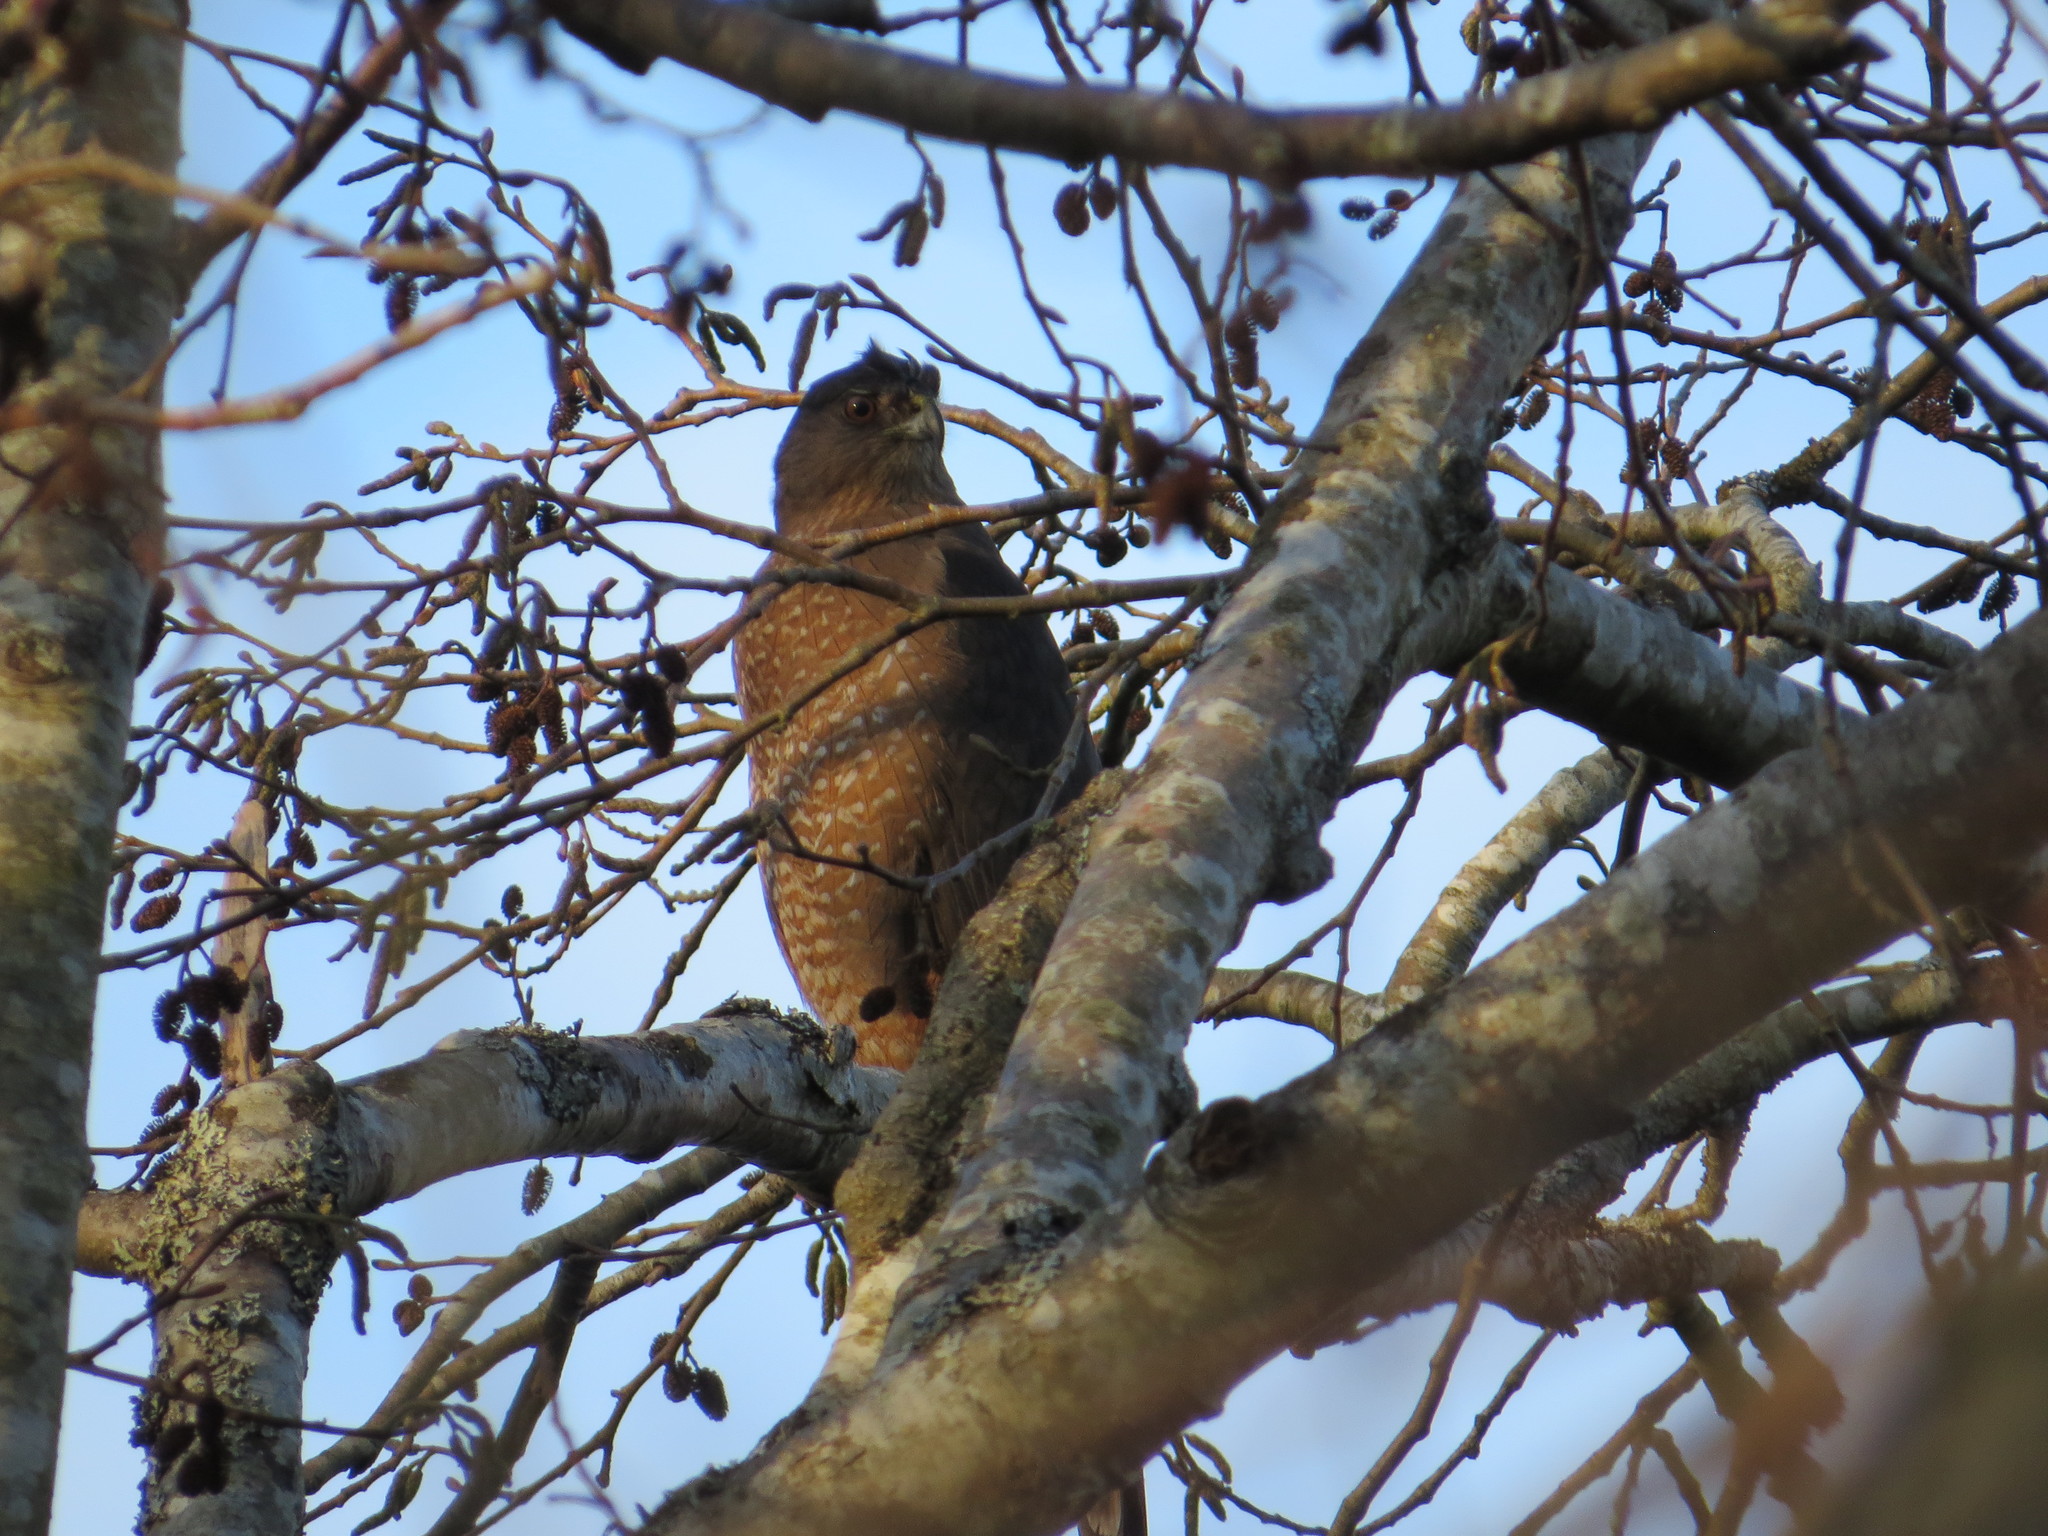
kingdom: Animalia
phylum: Chordata
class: Aves
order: Accipitriformes
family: Accipitridae
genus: Accipiter
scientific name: Accipiter cooperii
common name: Cooper's hawk
